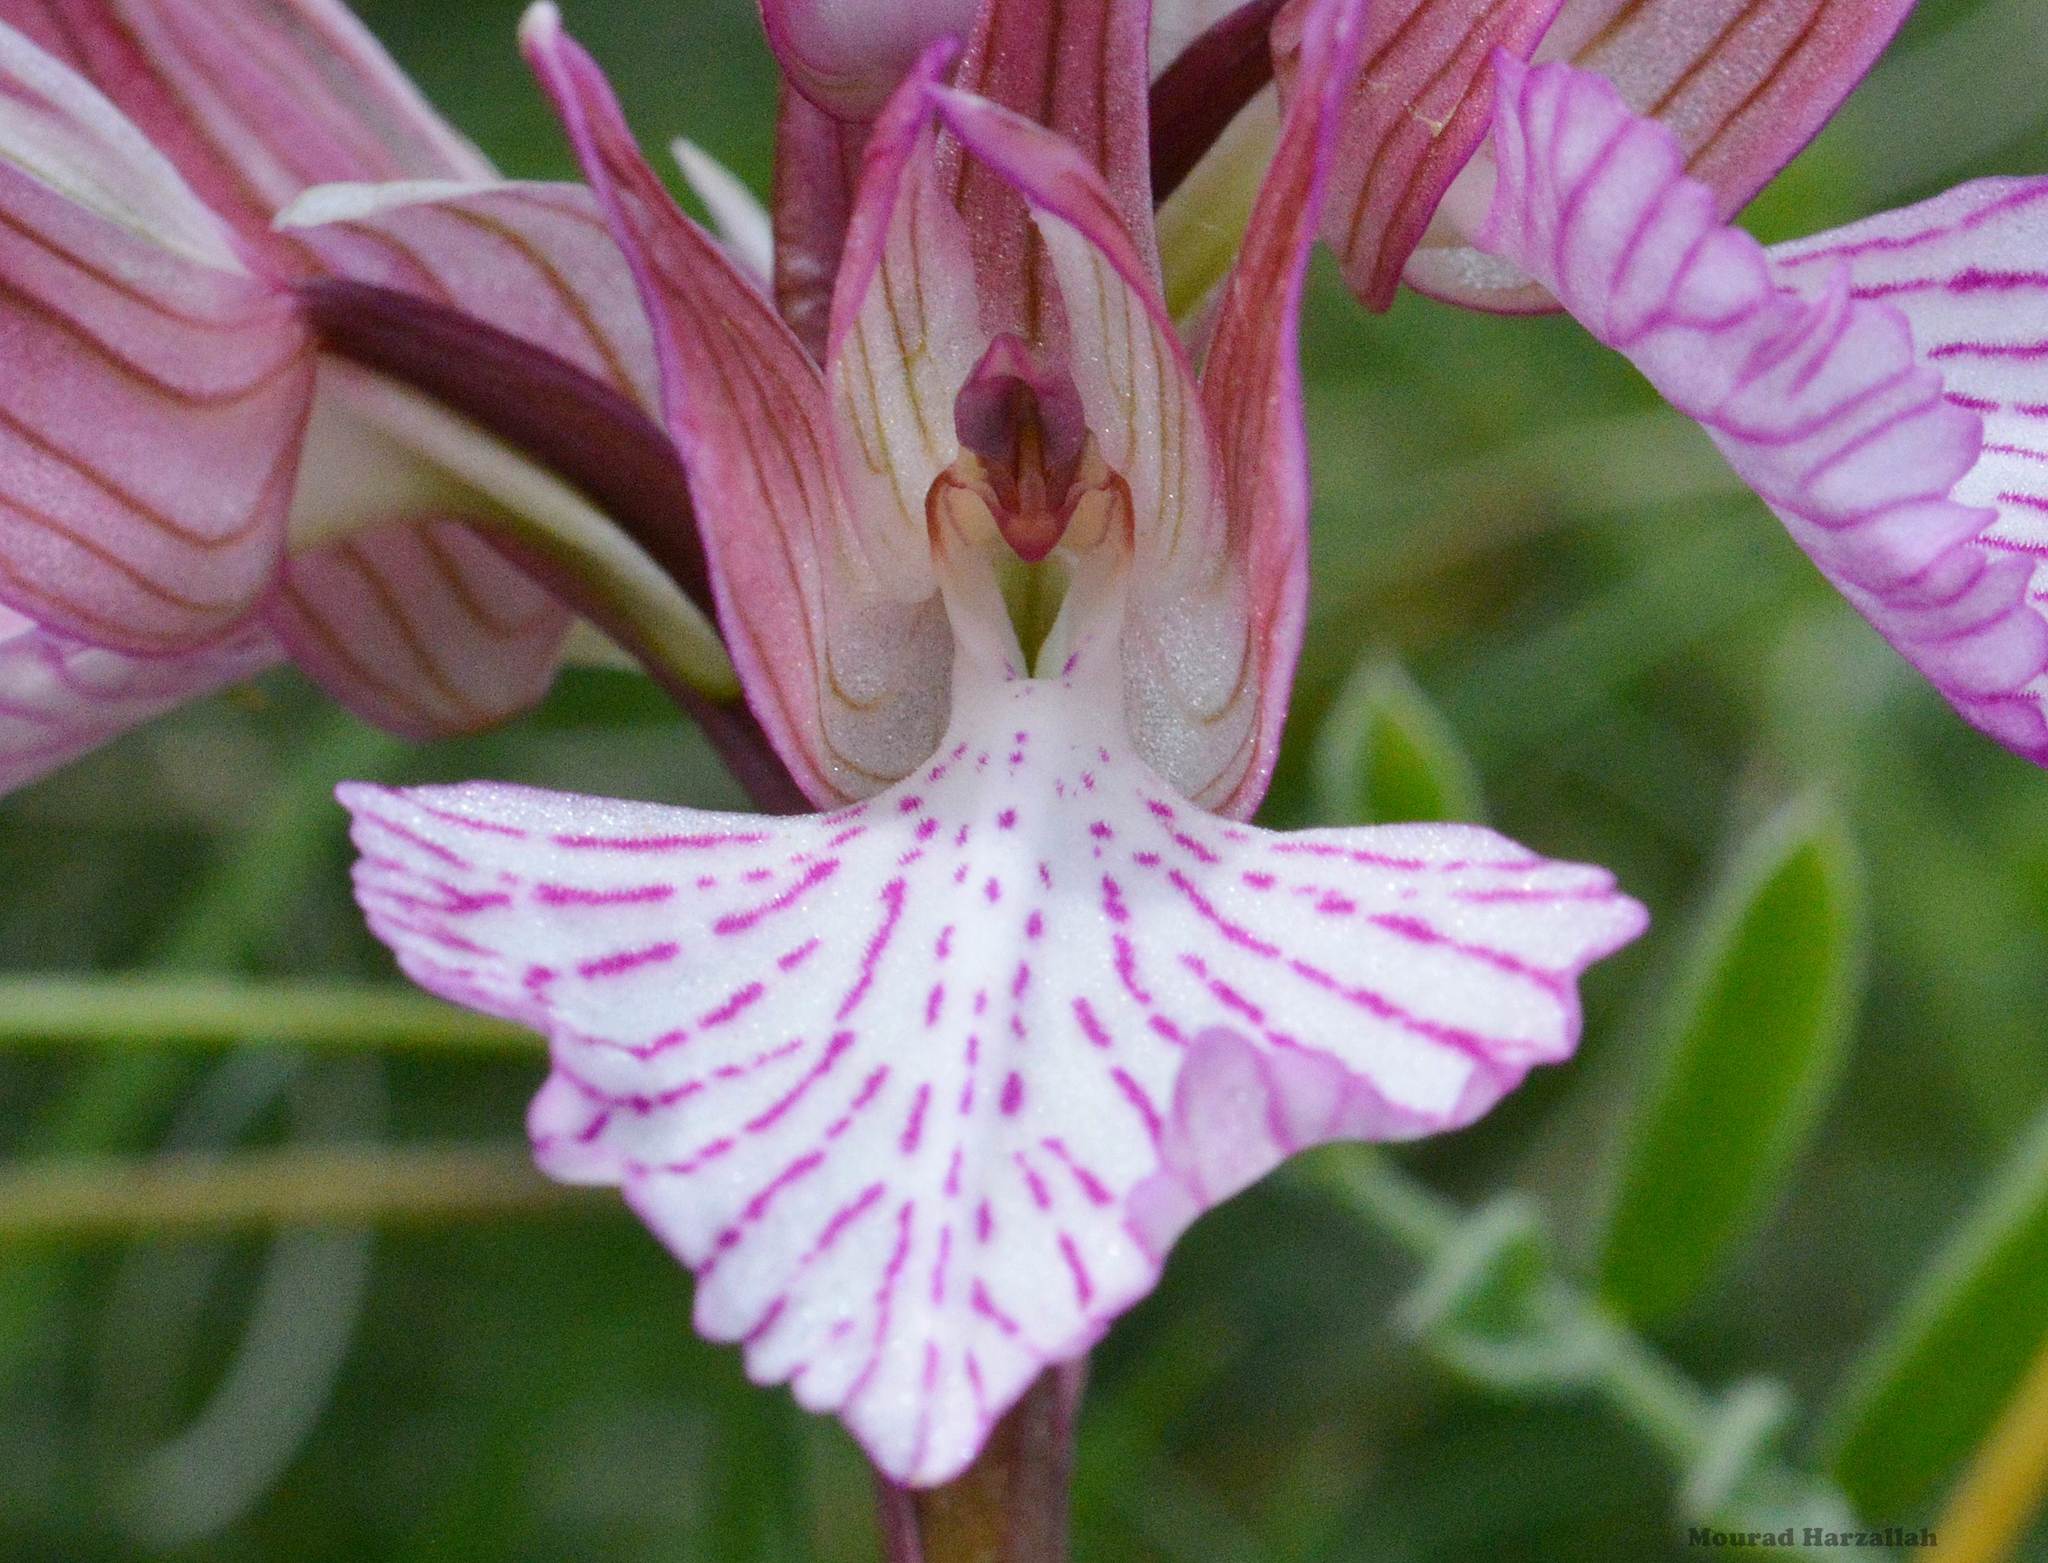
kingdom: Plantae
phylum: Tracheophyta
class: Liliopsida
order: Asparagales
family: Orchidaceae
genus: Anacamptis
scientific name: Anacamptis papilionacea
